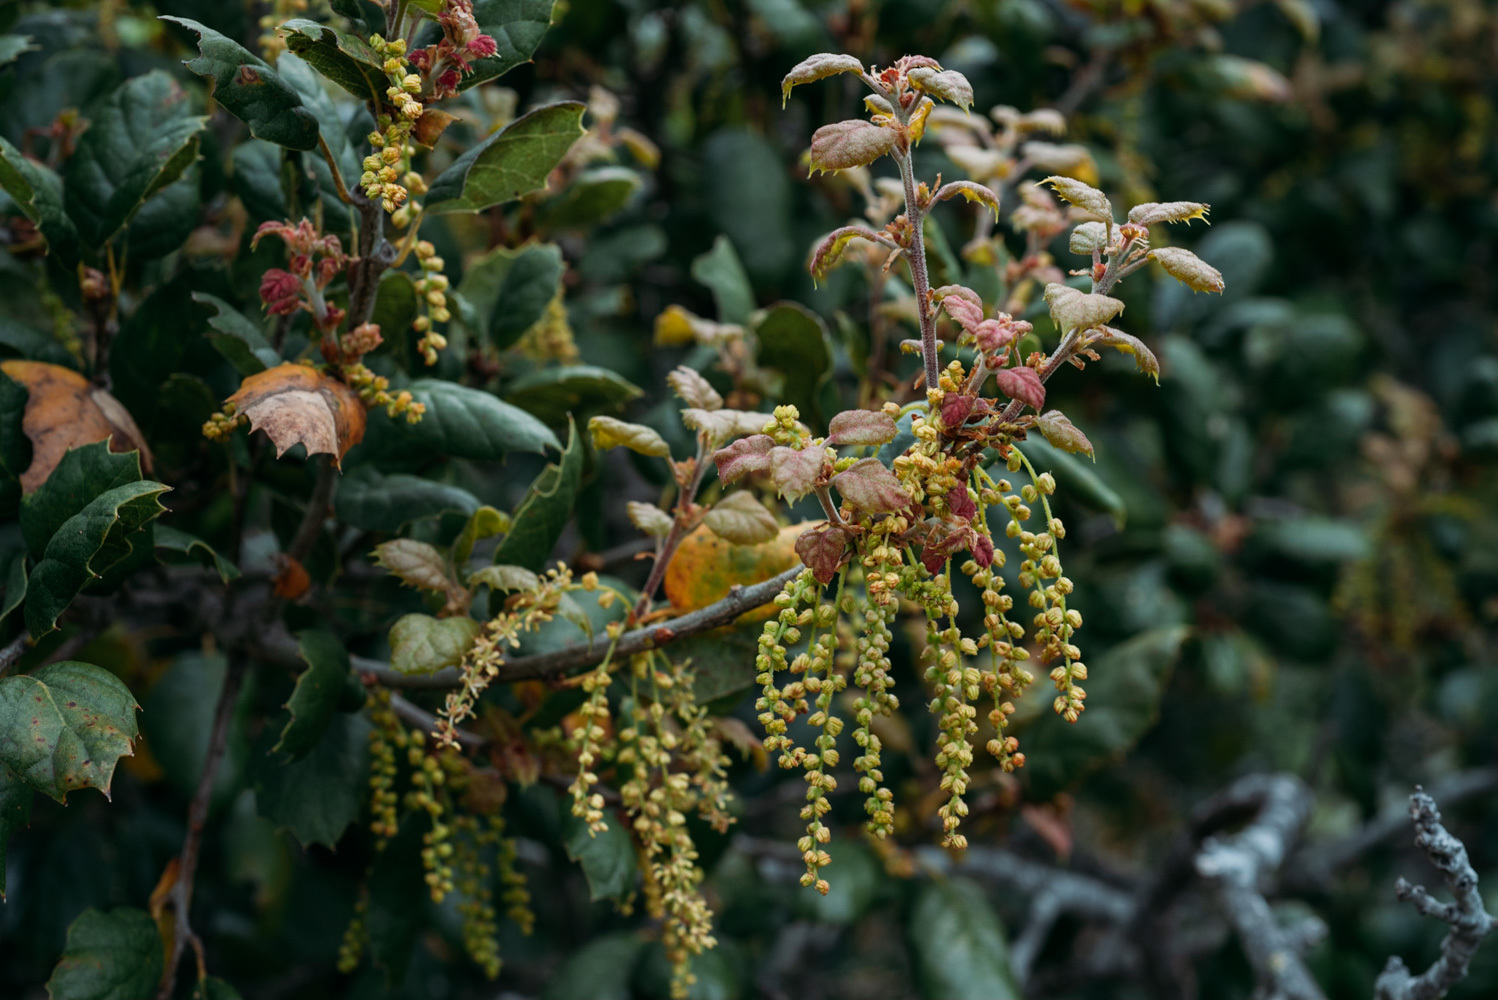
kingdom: Plantae
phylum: Tracheophyta
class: Magnoliopsida
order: Fagales
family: Fagaceae
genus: Quercus
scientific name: Quercus agrifolia
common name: California live oak
